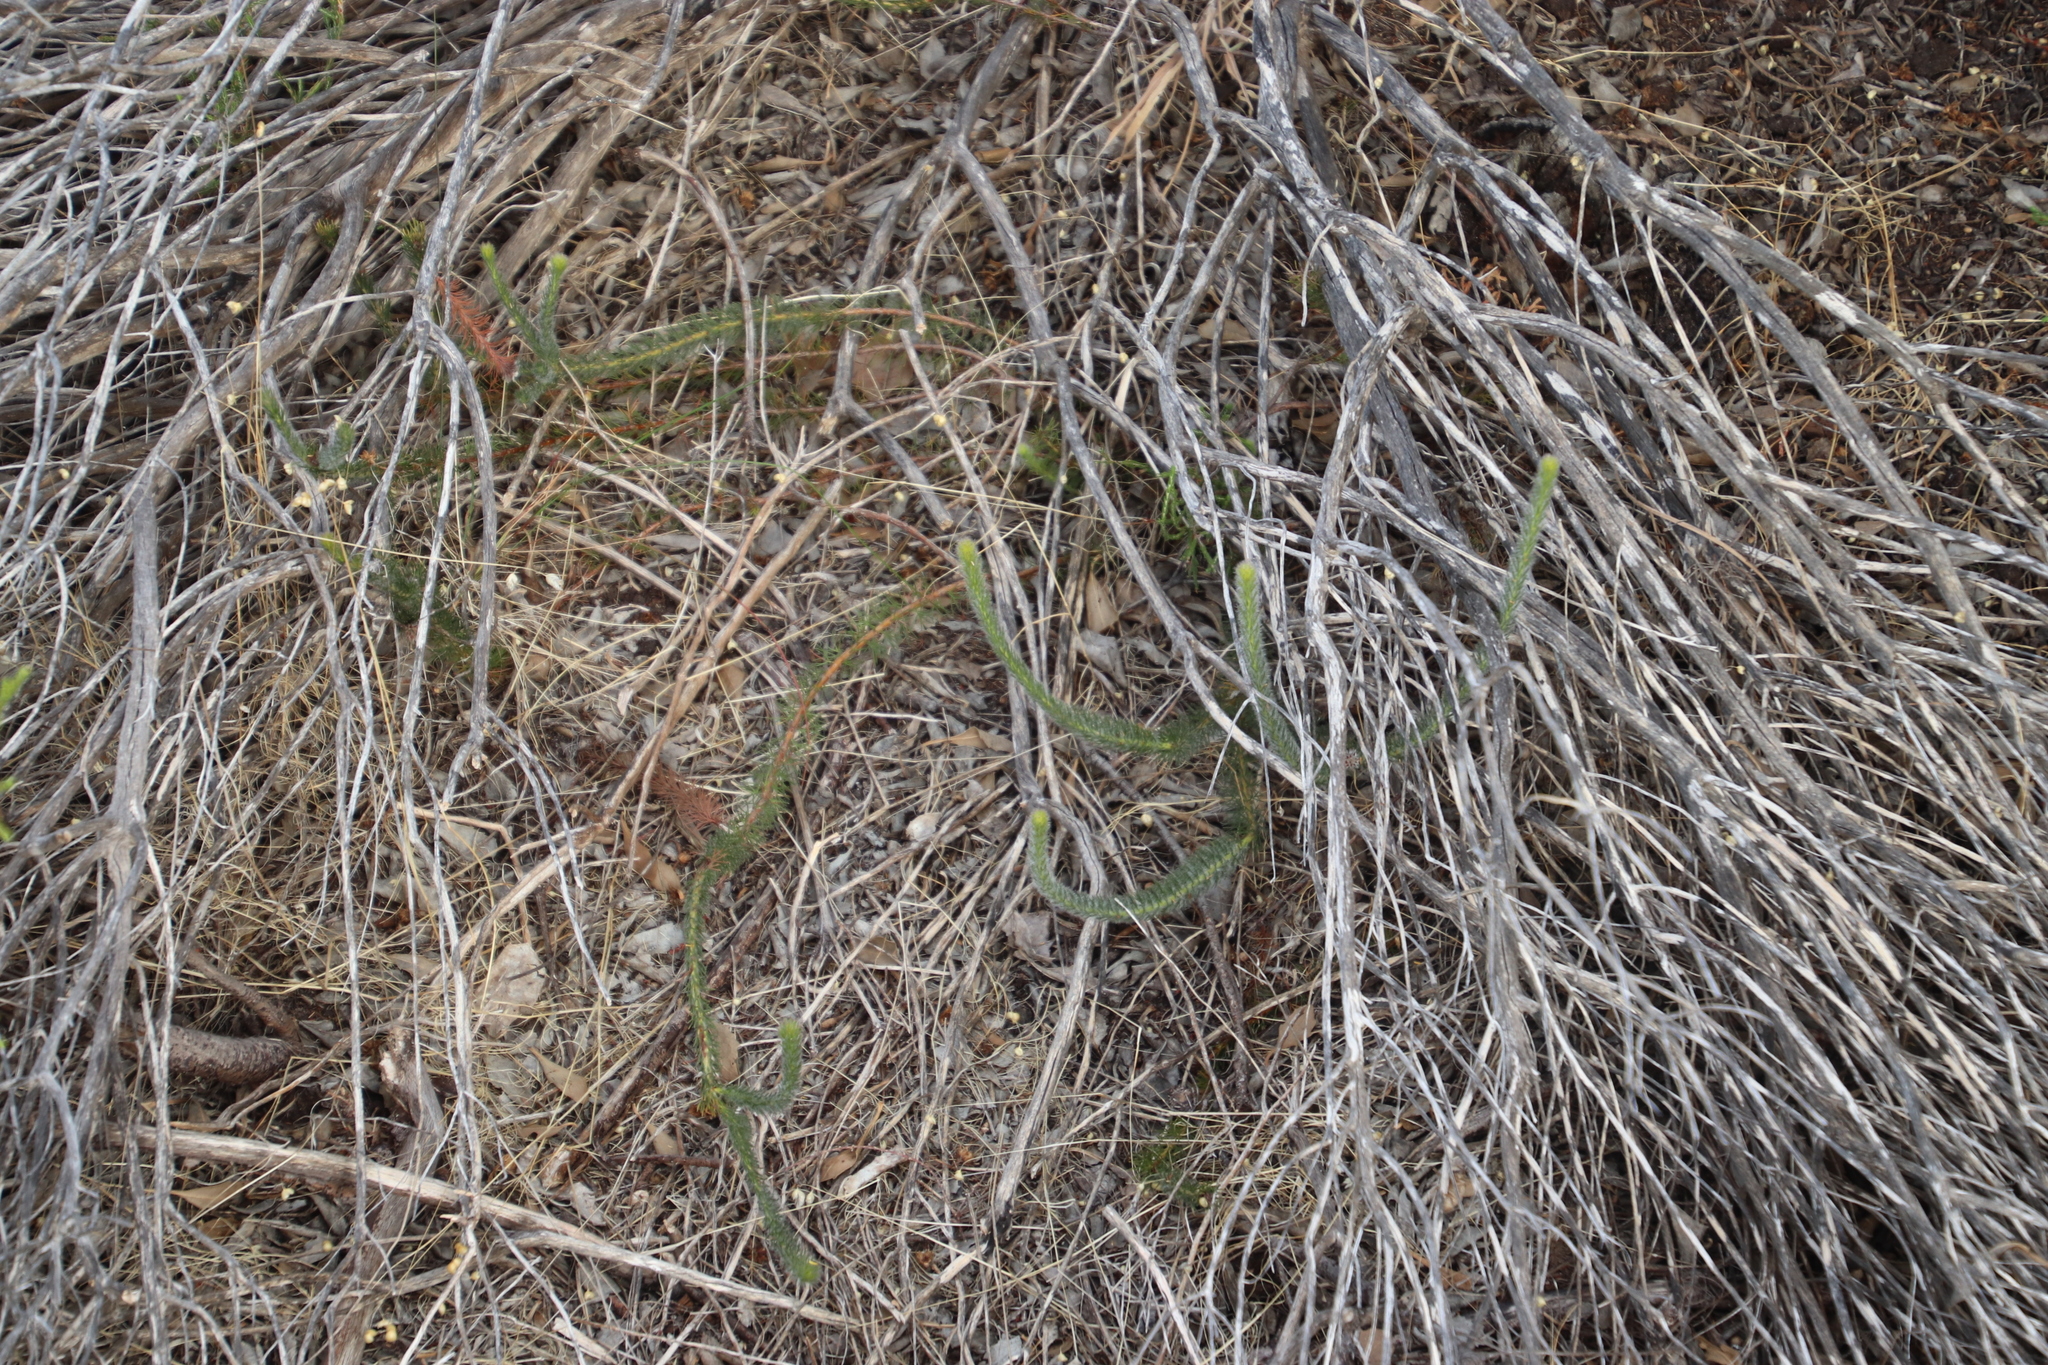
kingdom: Plantae
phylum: Tracheophyta
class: Magnoliopsida
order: Proteales
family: Proteaceae
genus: Serruria
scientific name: Serruria trilopha
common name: Trident spiderhead
